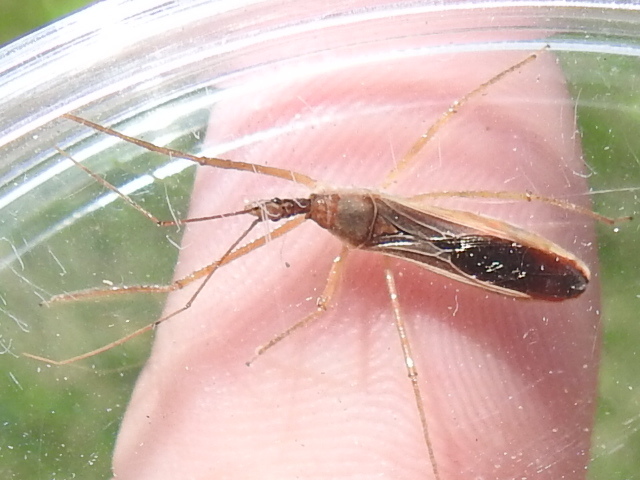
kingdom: Animalia
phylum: Arthropoda
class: Insecta
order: Hemiptera
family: Reduviidae
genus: Zelus
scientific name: Zelus cervicalis
